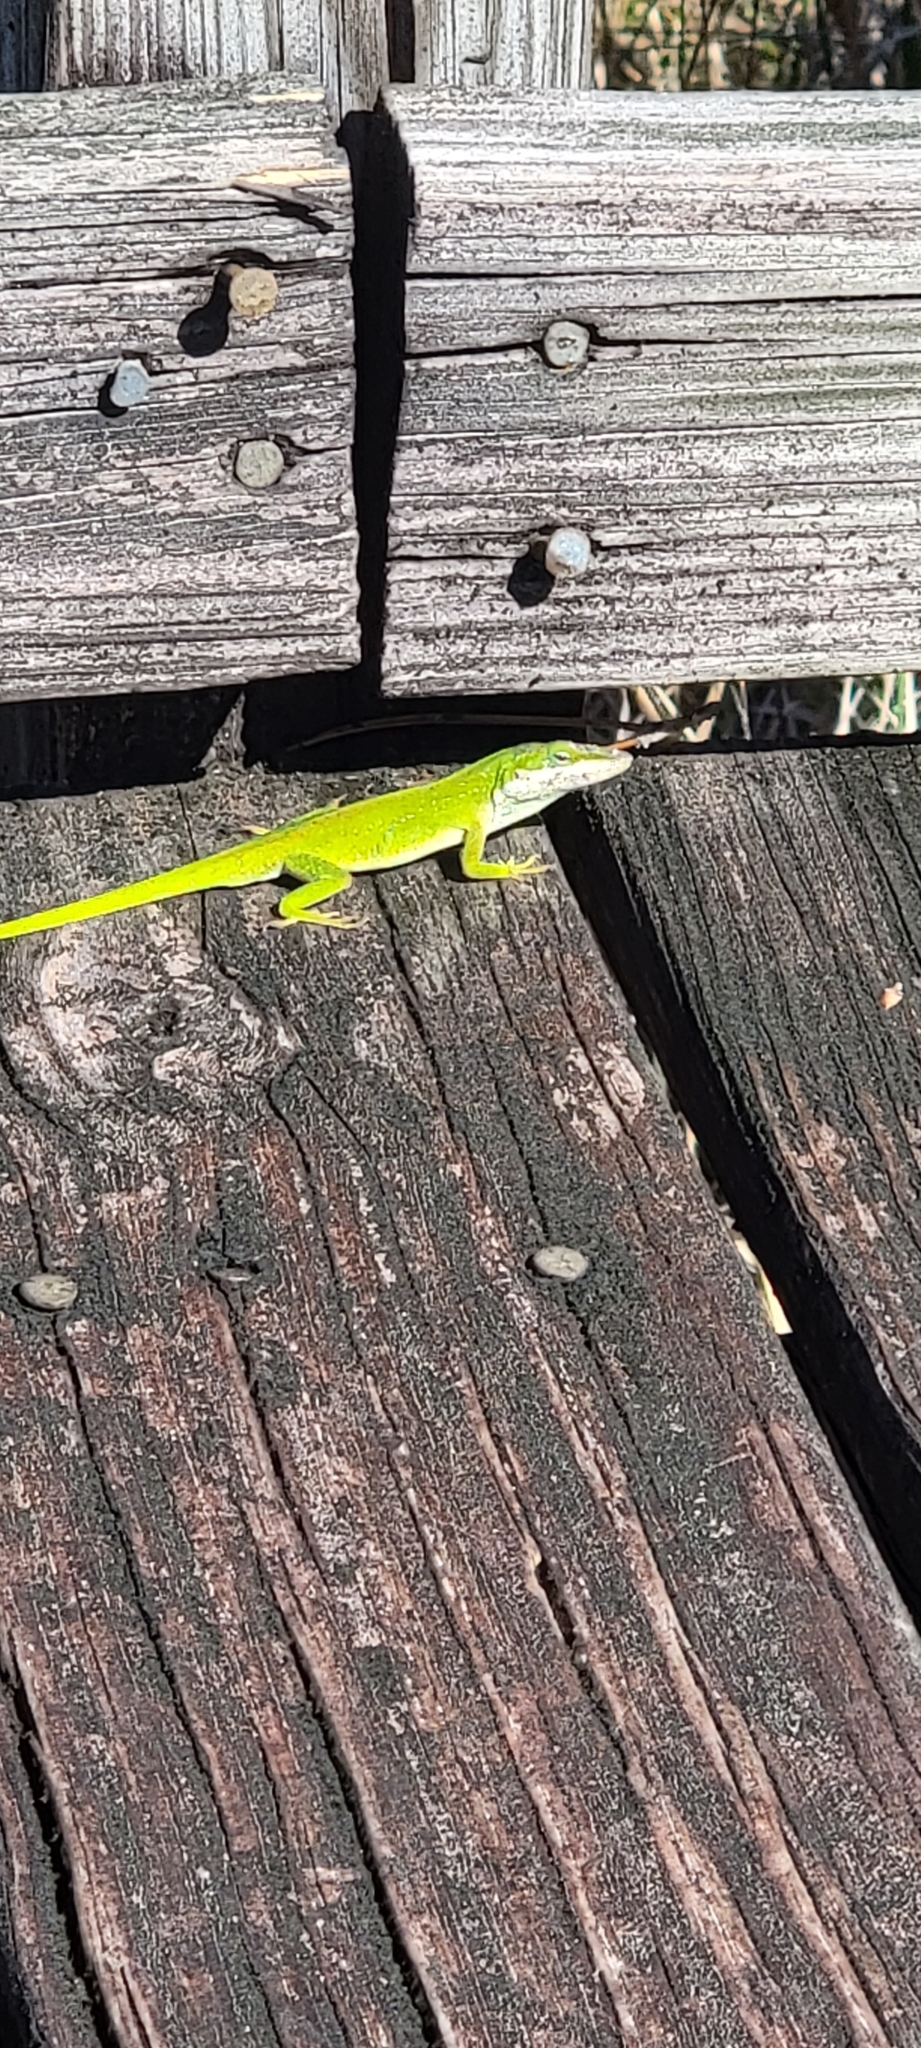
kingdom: Animalia
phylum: Chordata
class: Squamata
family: Dactyloidae
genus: Anolis
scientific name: Anolis carolinensis
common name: Green anole
